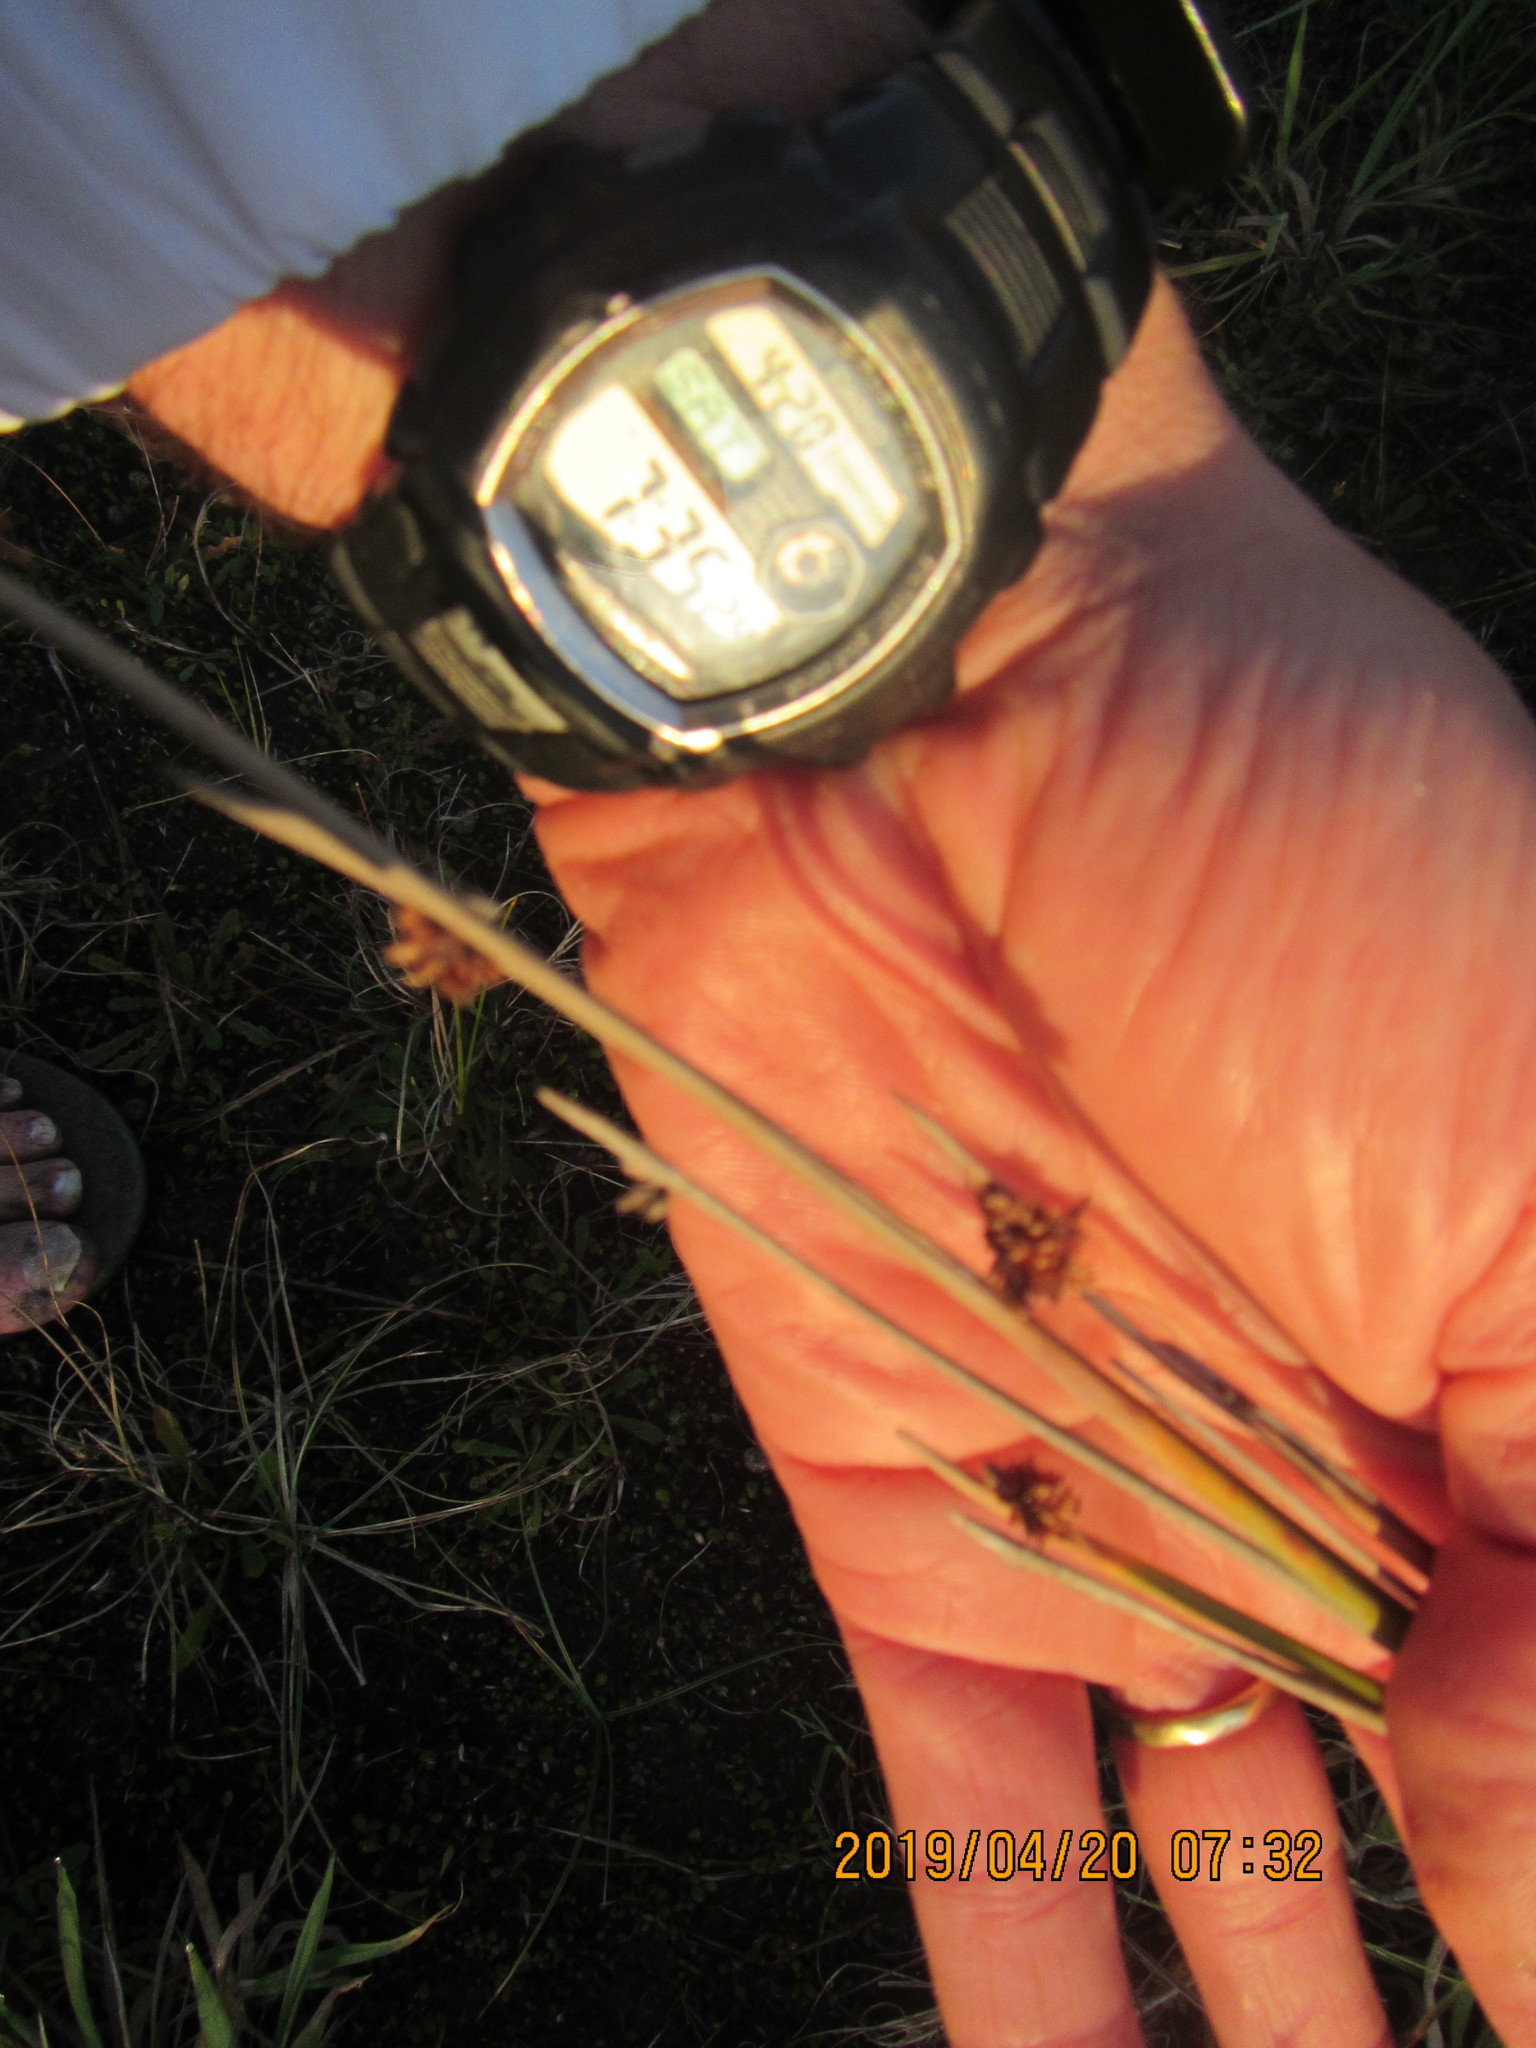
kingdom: Plantae
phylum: Tracheophyta
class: Liliopsida
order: Poales
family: Cyperaceae
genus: Ficinia
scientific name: Ficinia nodosa
